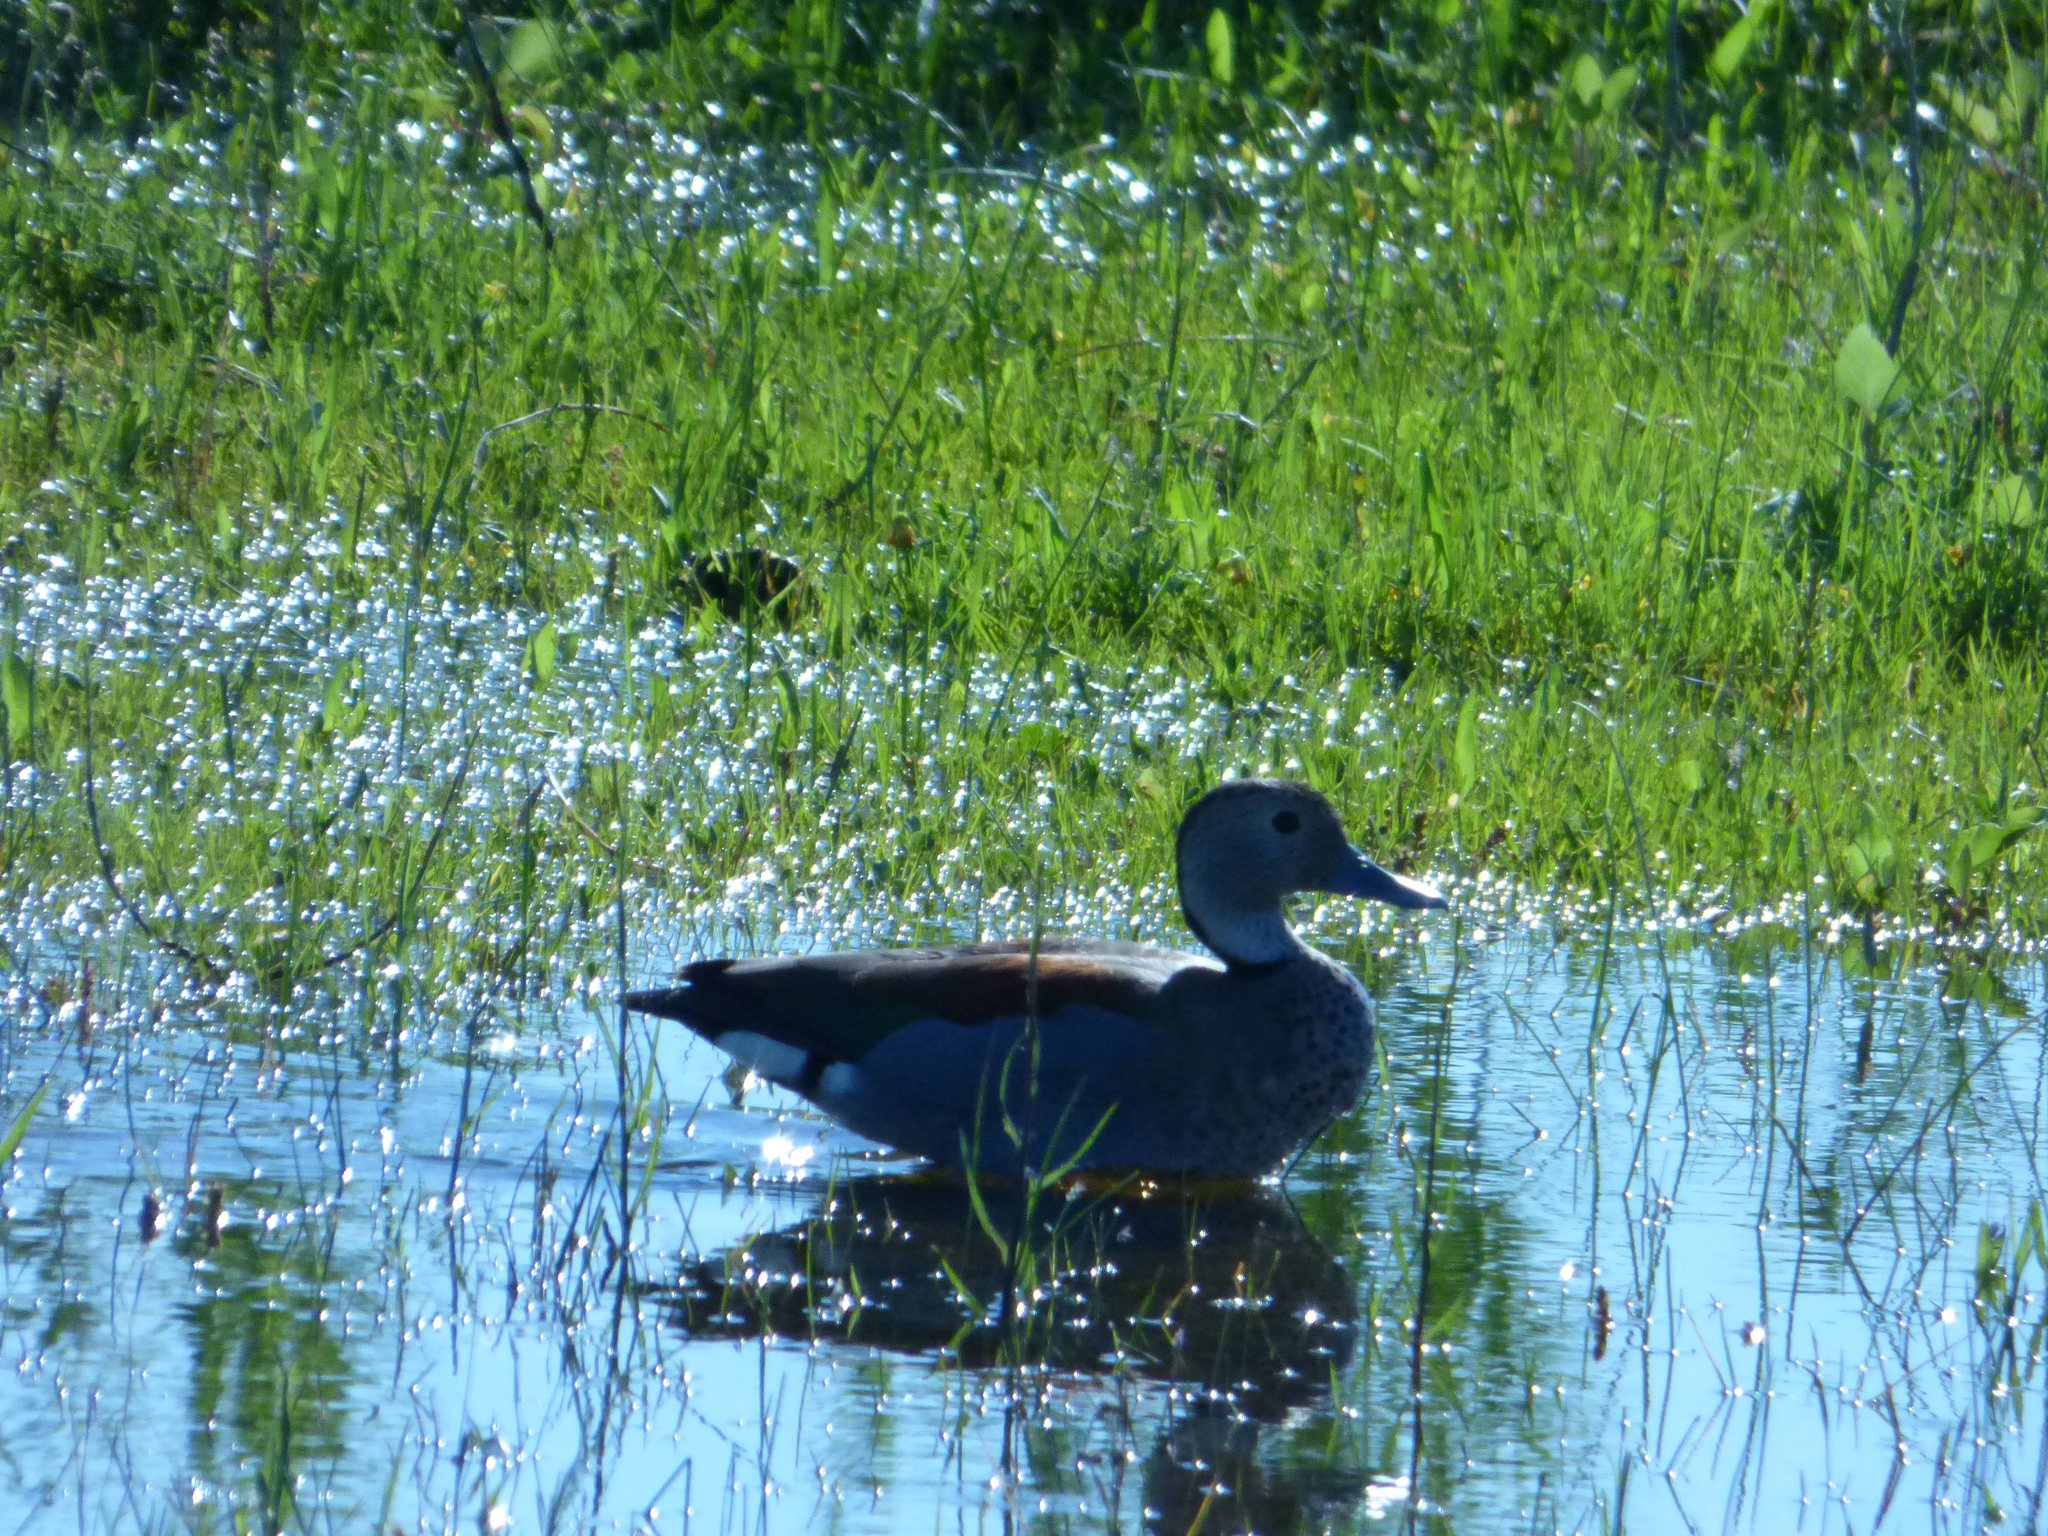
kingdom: Animalia
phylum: Chordata
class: Aves
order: Anseriformes
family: Anatidae
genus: Callonetta
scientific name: Callonetta leucophrys
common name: Ringed teal
